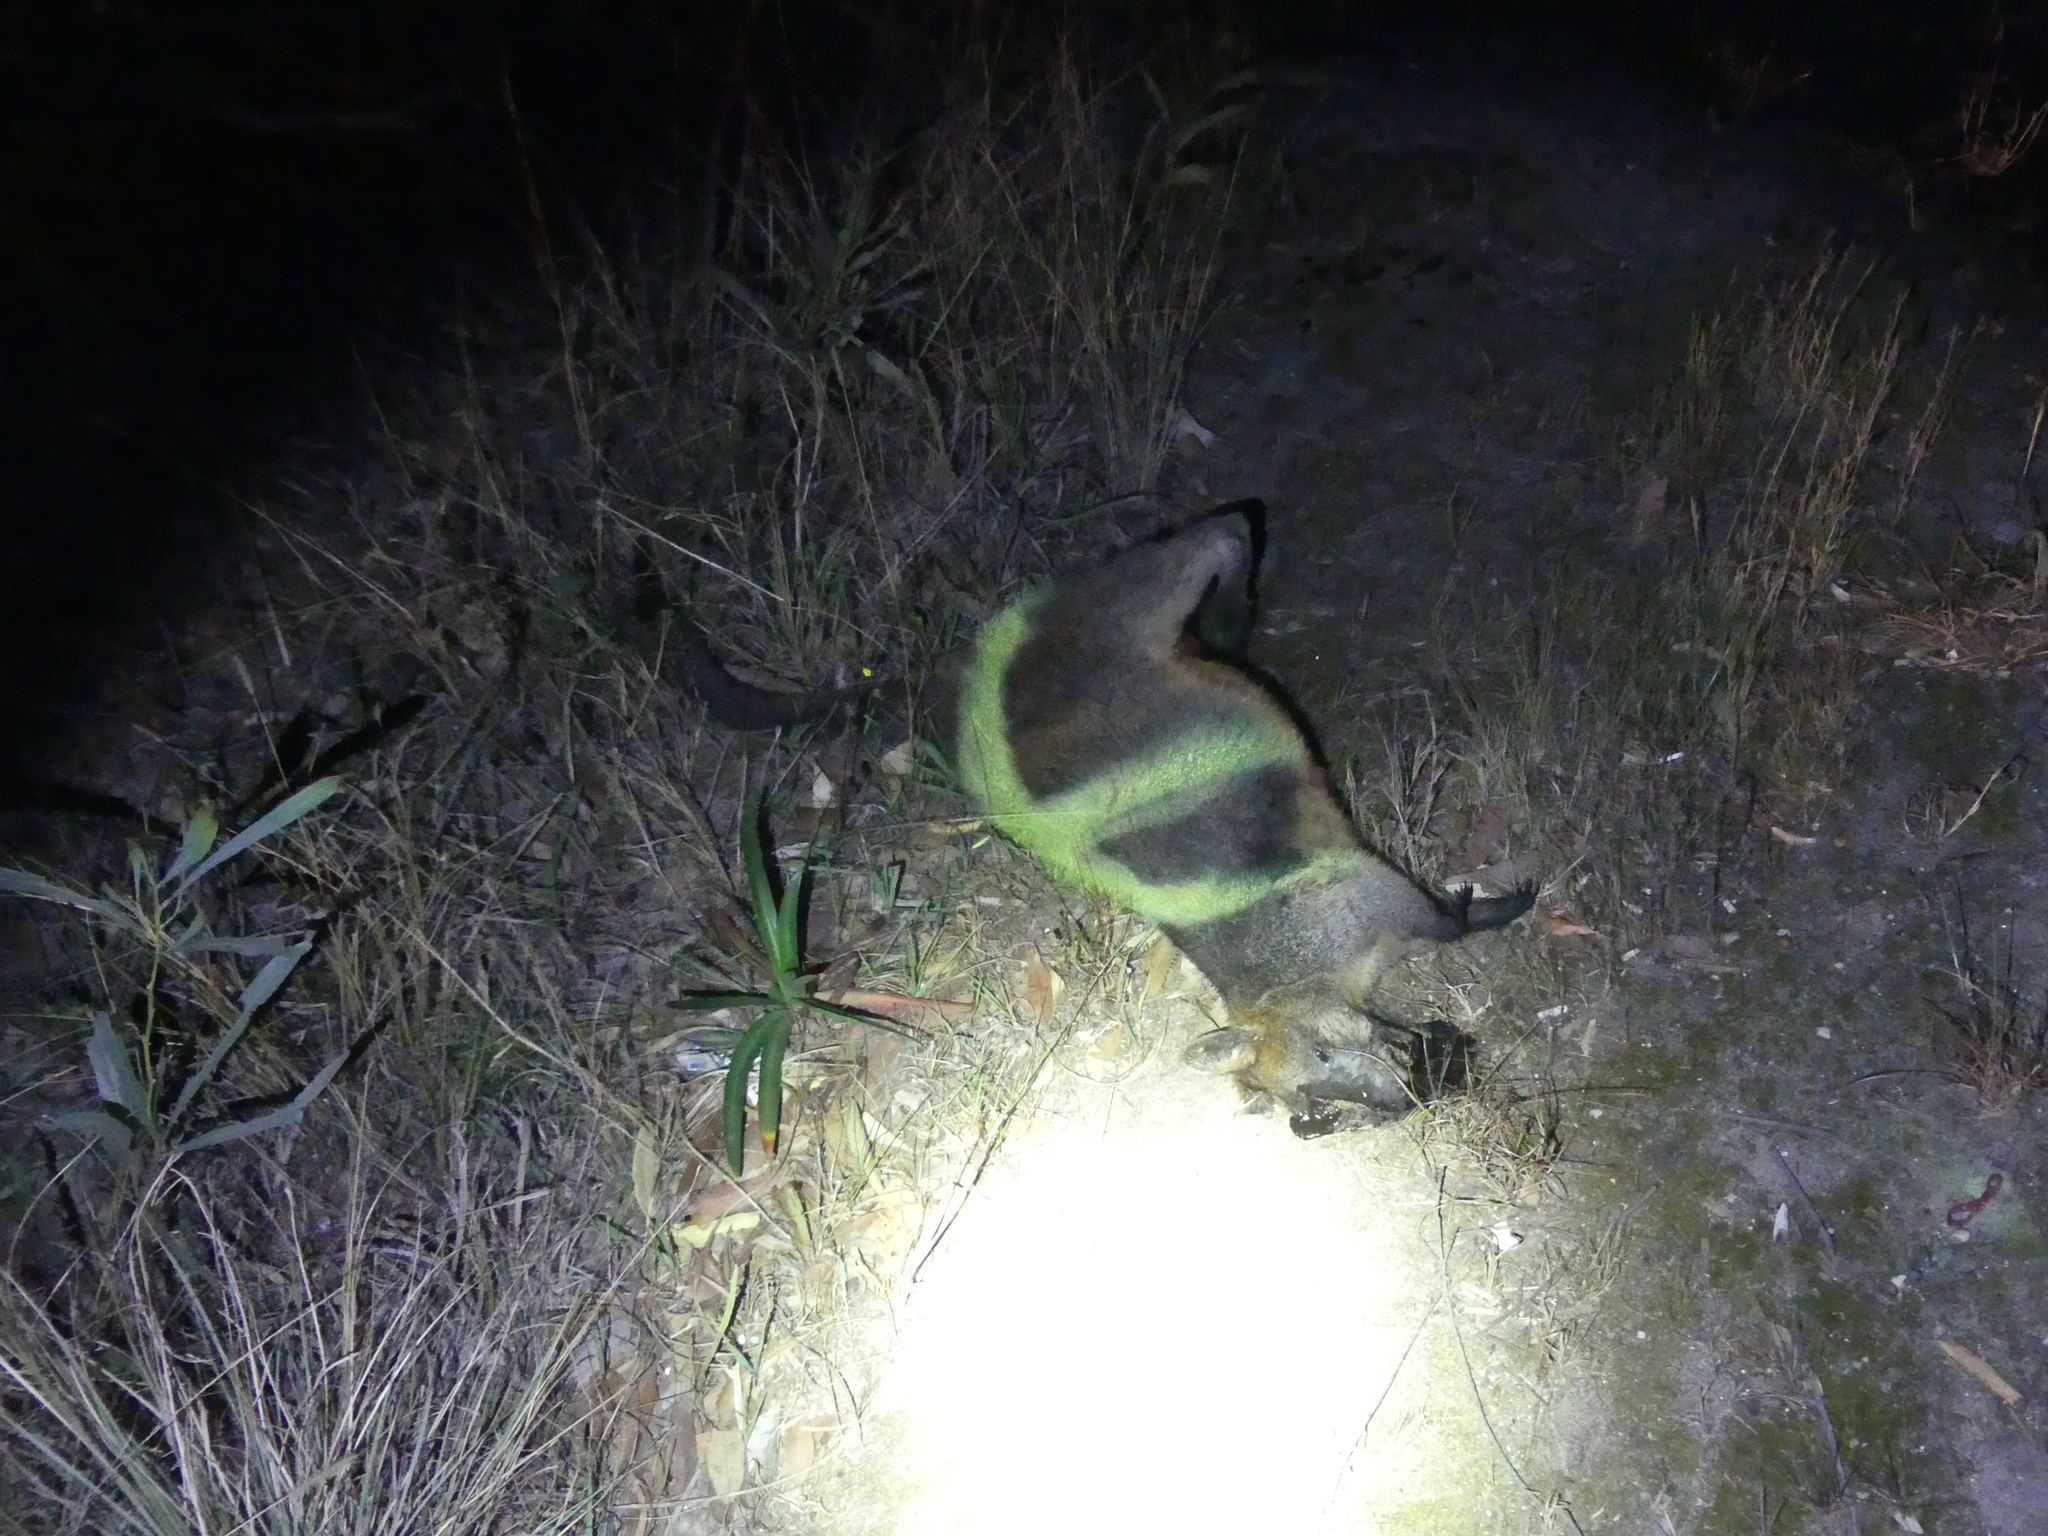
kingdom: Animalia
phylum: Chordata
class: Mammalia
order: Diprotodontia
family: Macropodidae
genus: Wallabia
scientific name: Wallabia bicolor
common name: Swamp wallaby
